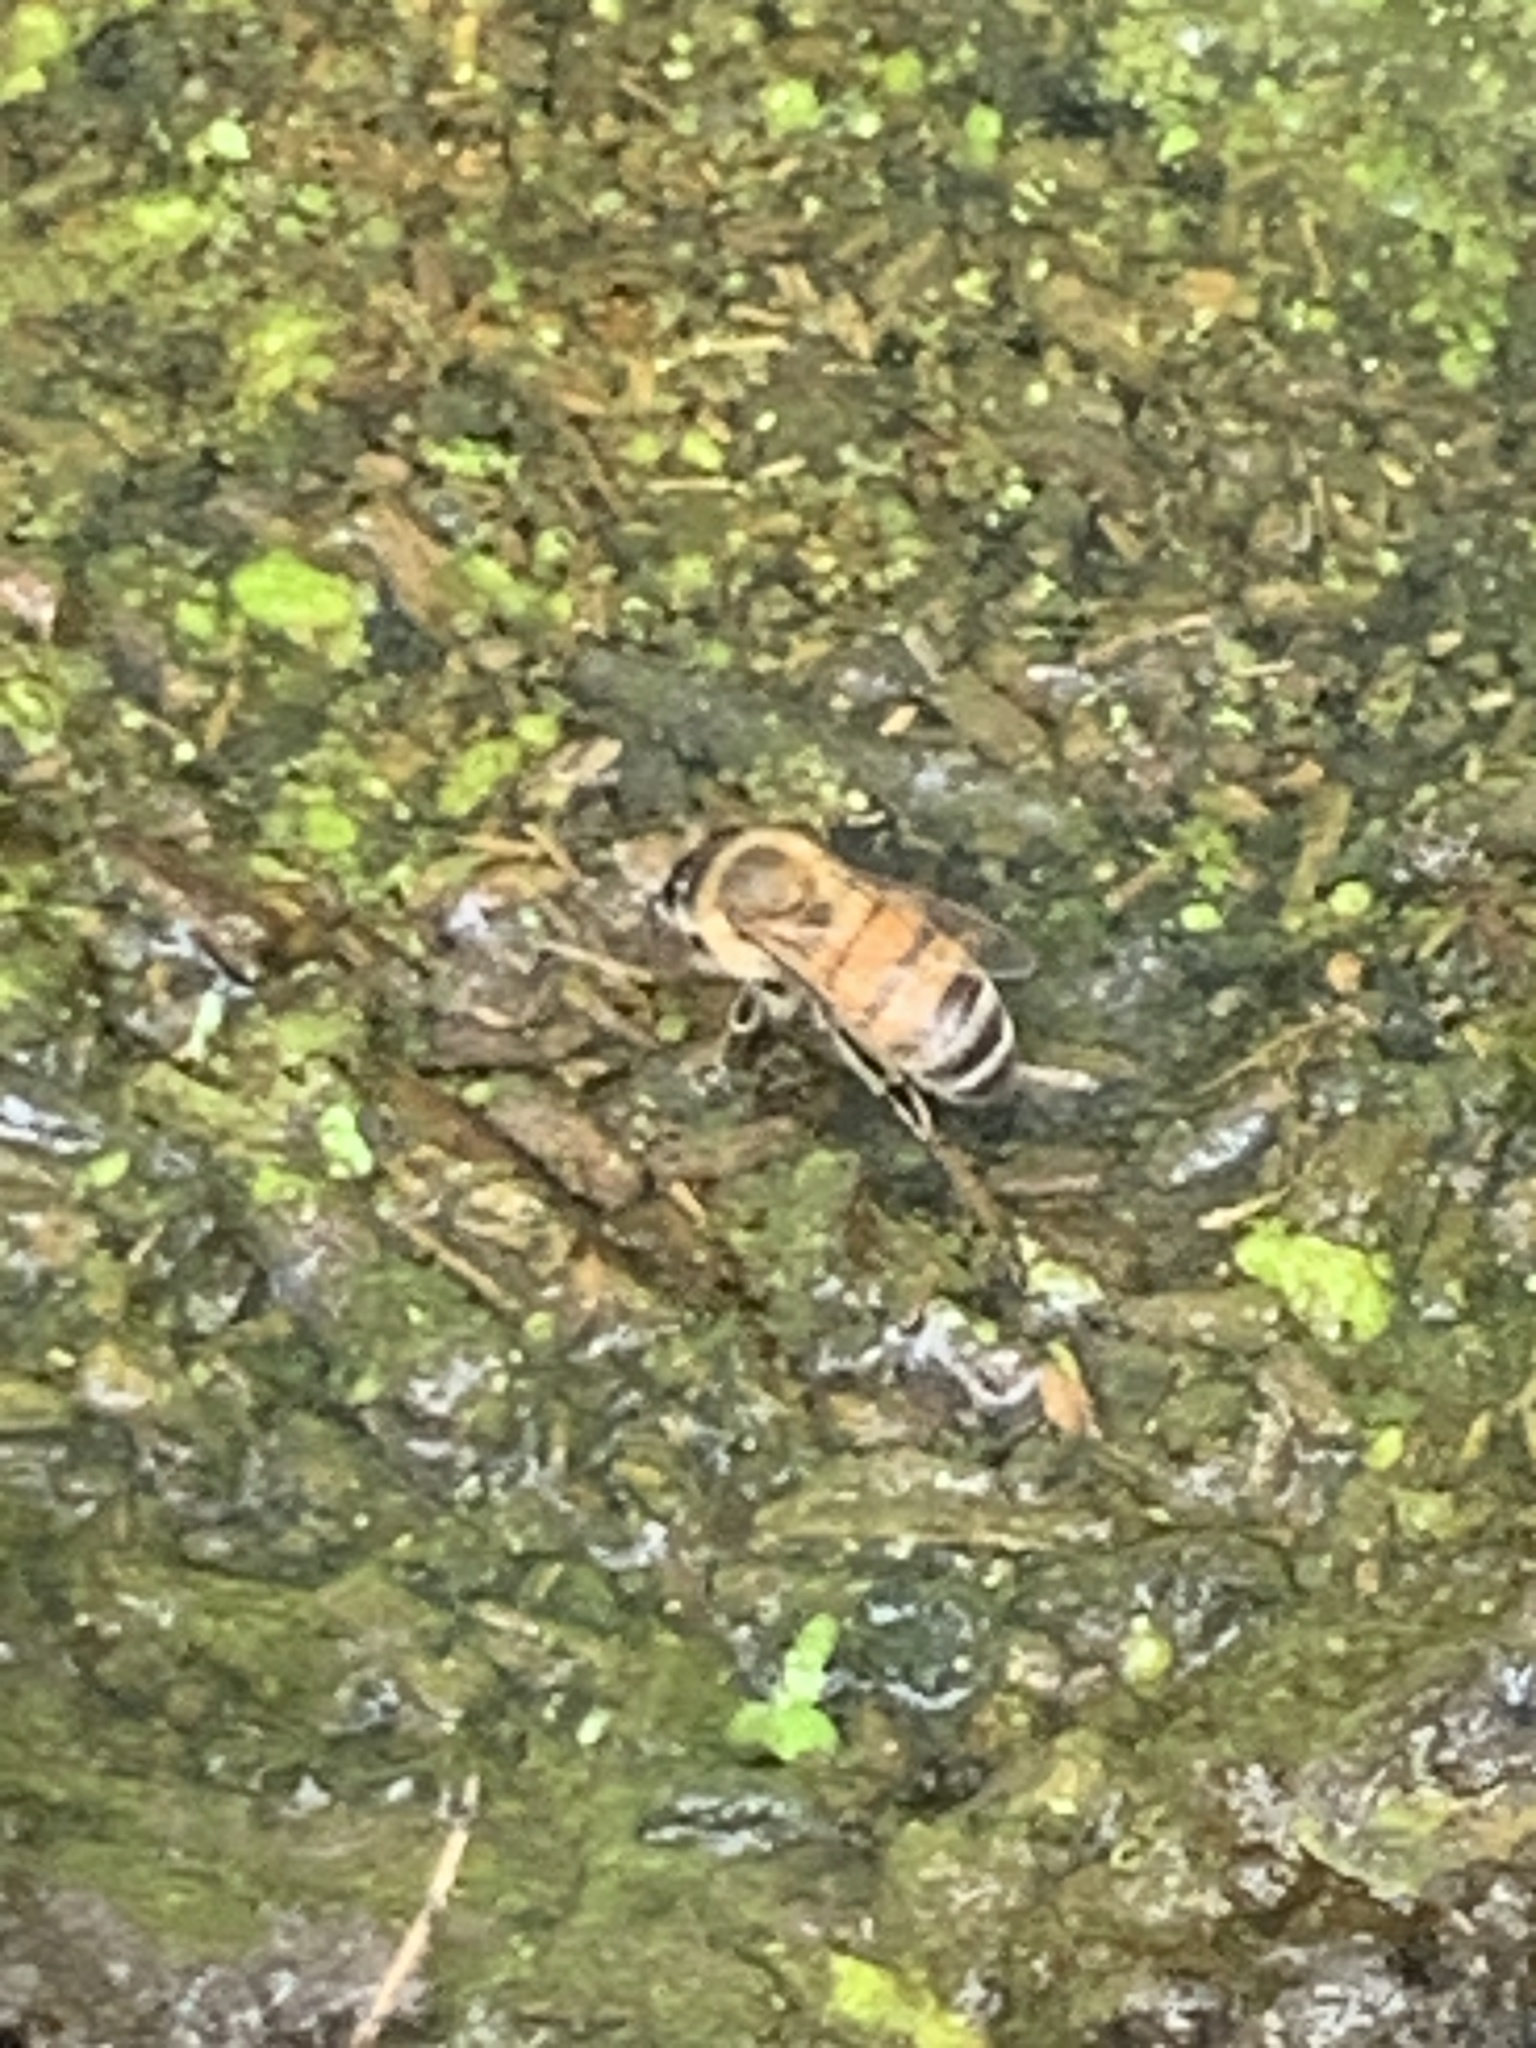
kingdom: Animalia
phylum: Arthropoda
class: Insecta
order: Hymenoptera
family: Apidae
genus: Apis
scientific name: Apis mellifera
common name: Honey bee
